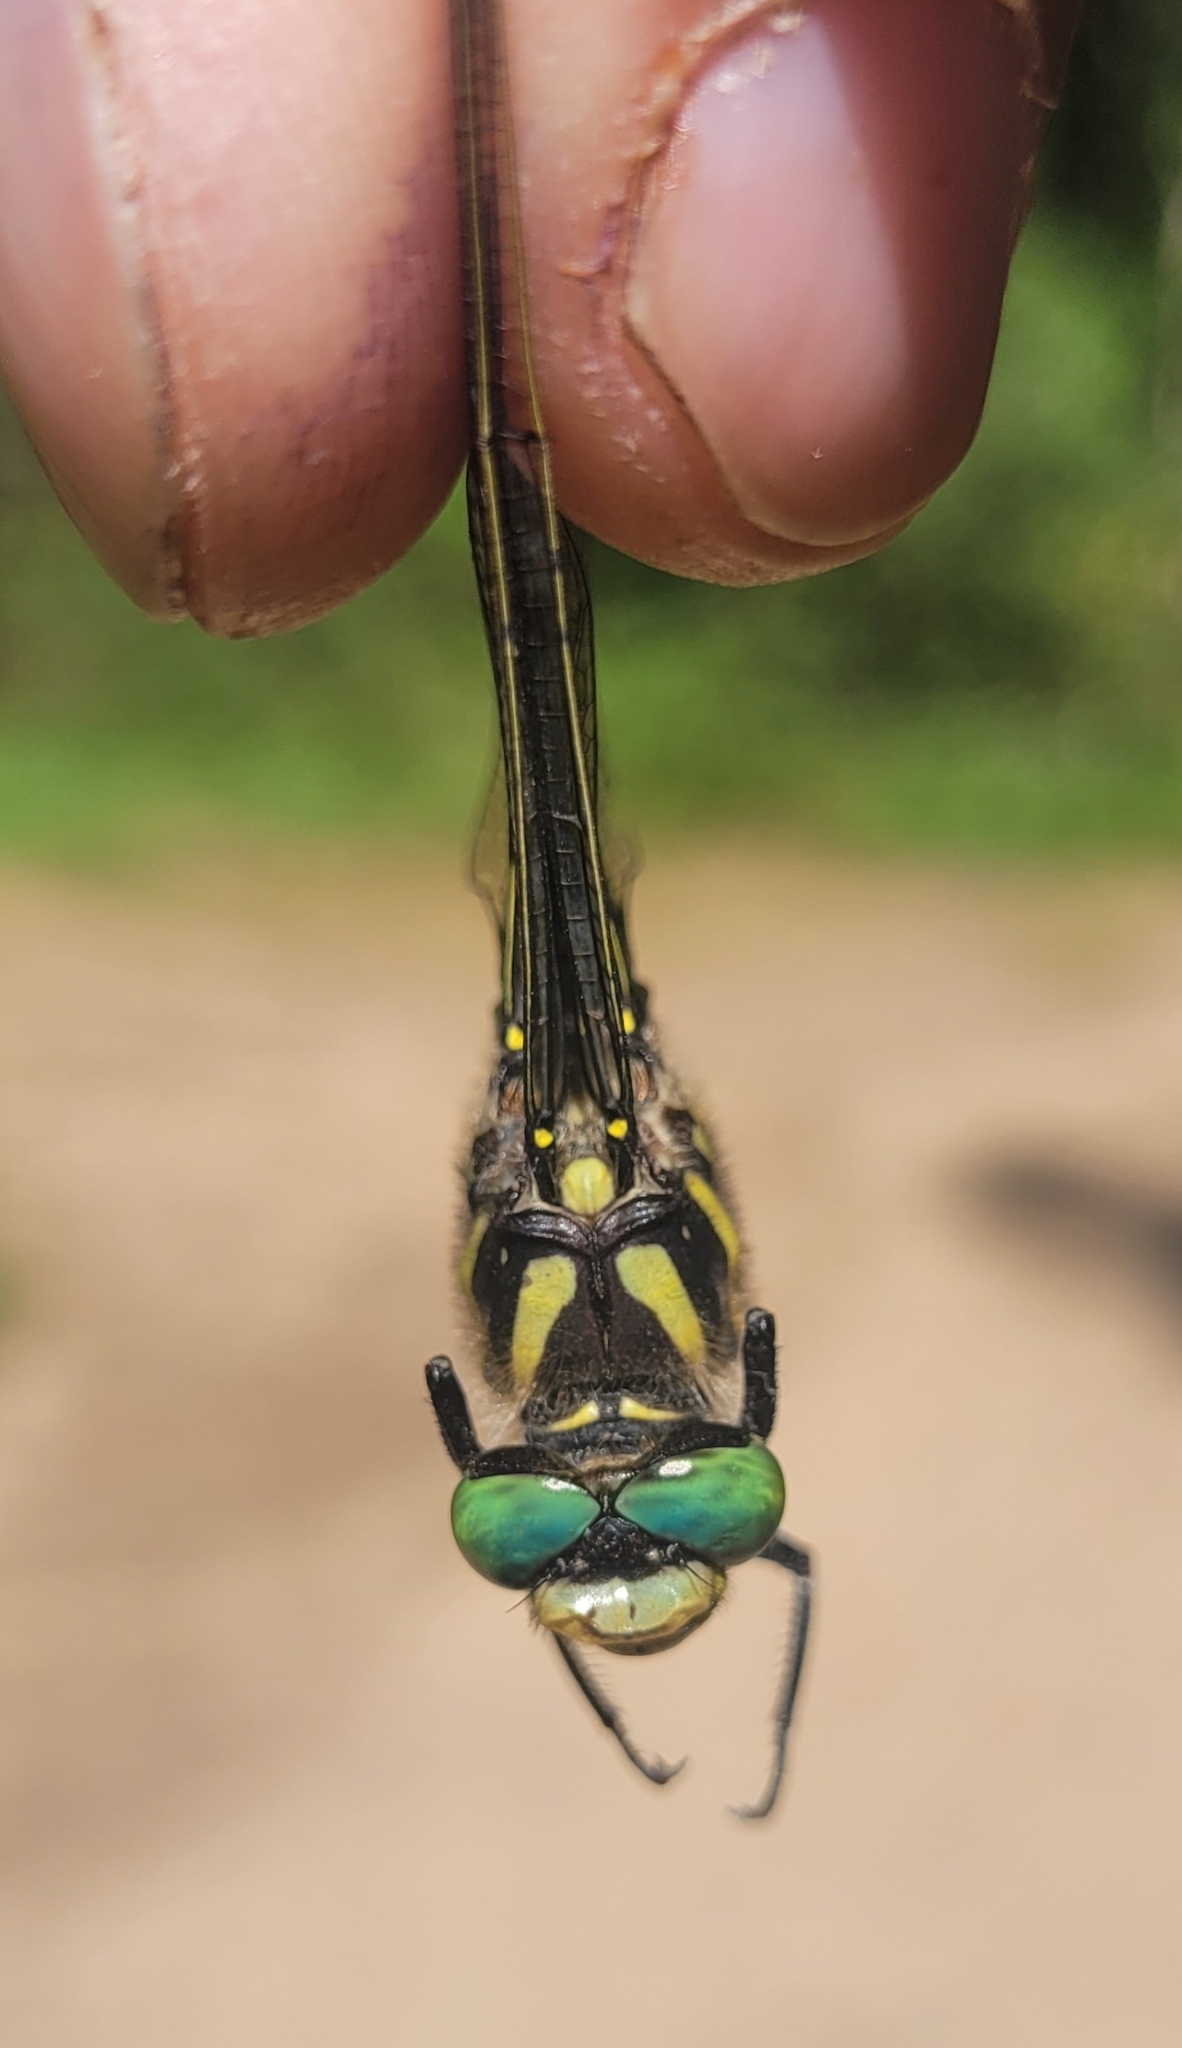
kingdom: Animalia
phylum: Arthropoda
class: Insecta
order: Odonata
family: Cordulegastridae
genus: Cordulegaster
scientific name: Cordulegaster boltonii
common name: Golden-ringed dragonfly
